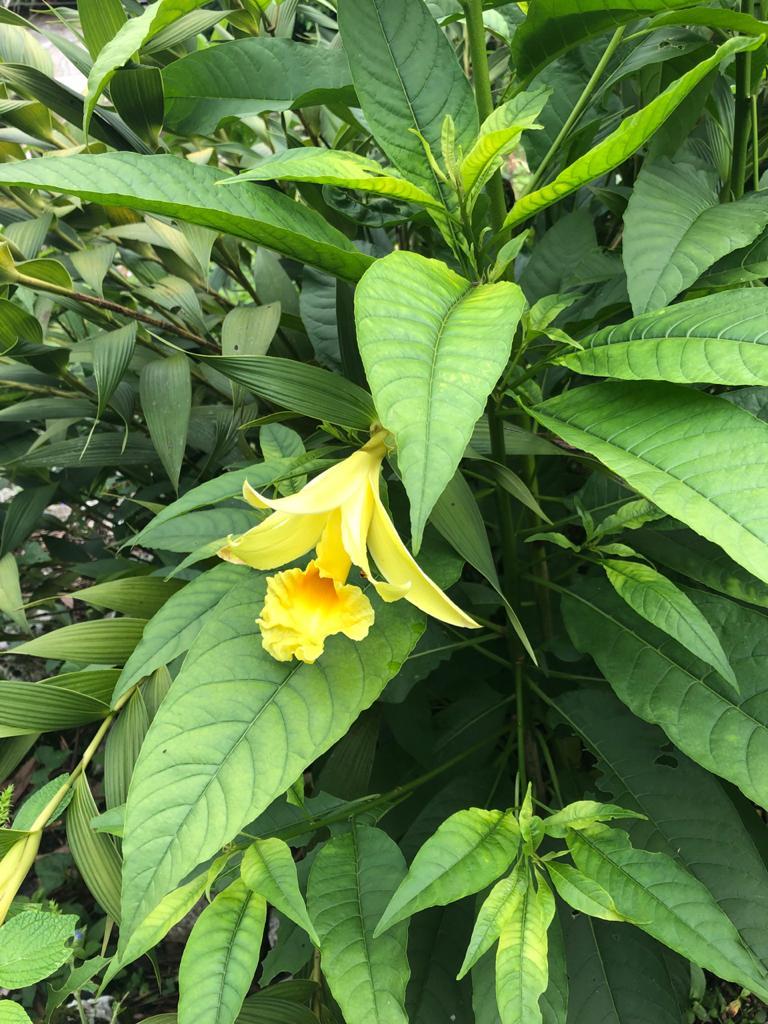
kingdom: Plantae
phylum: Tracheophyta
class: Liliopsida
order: Asparagales
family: Orchidaceae
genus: Sobralia
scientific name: Sobralia xantholeuca
